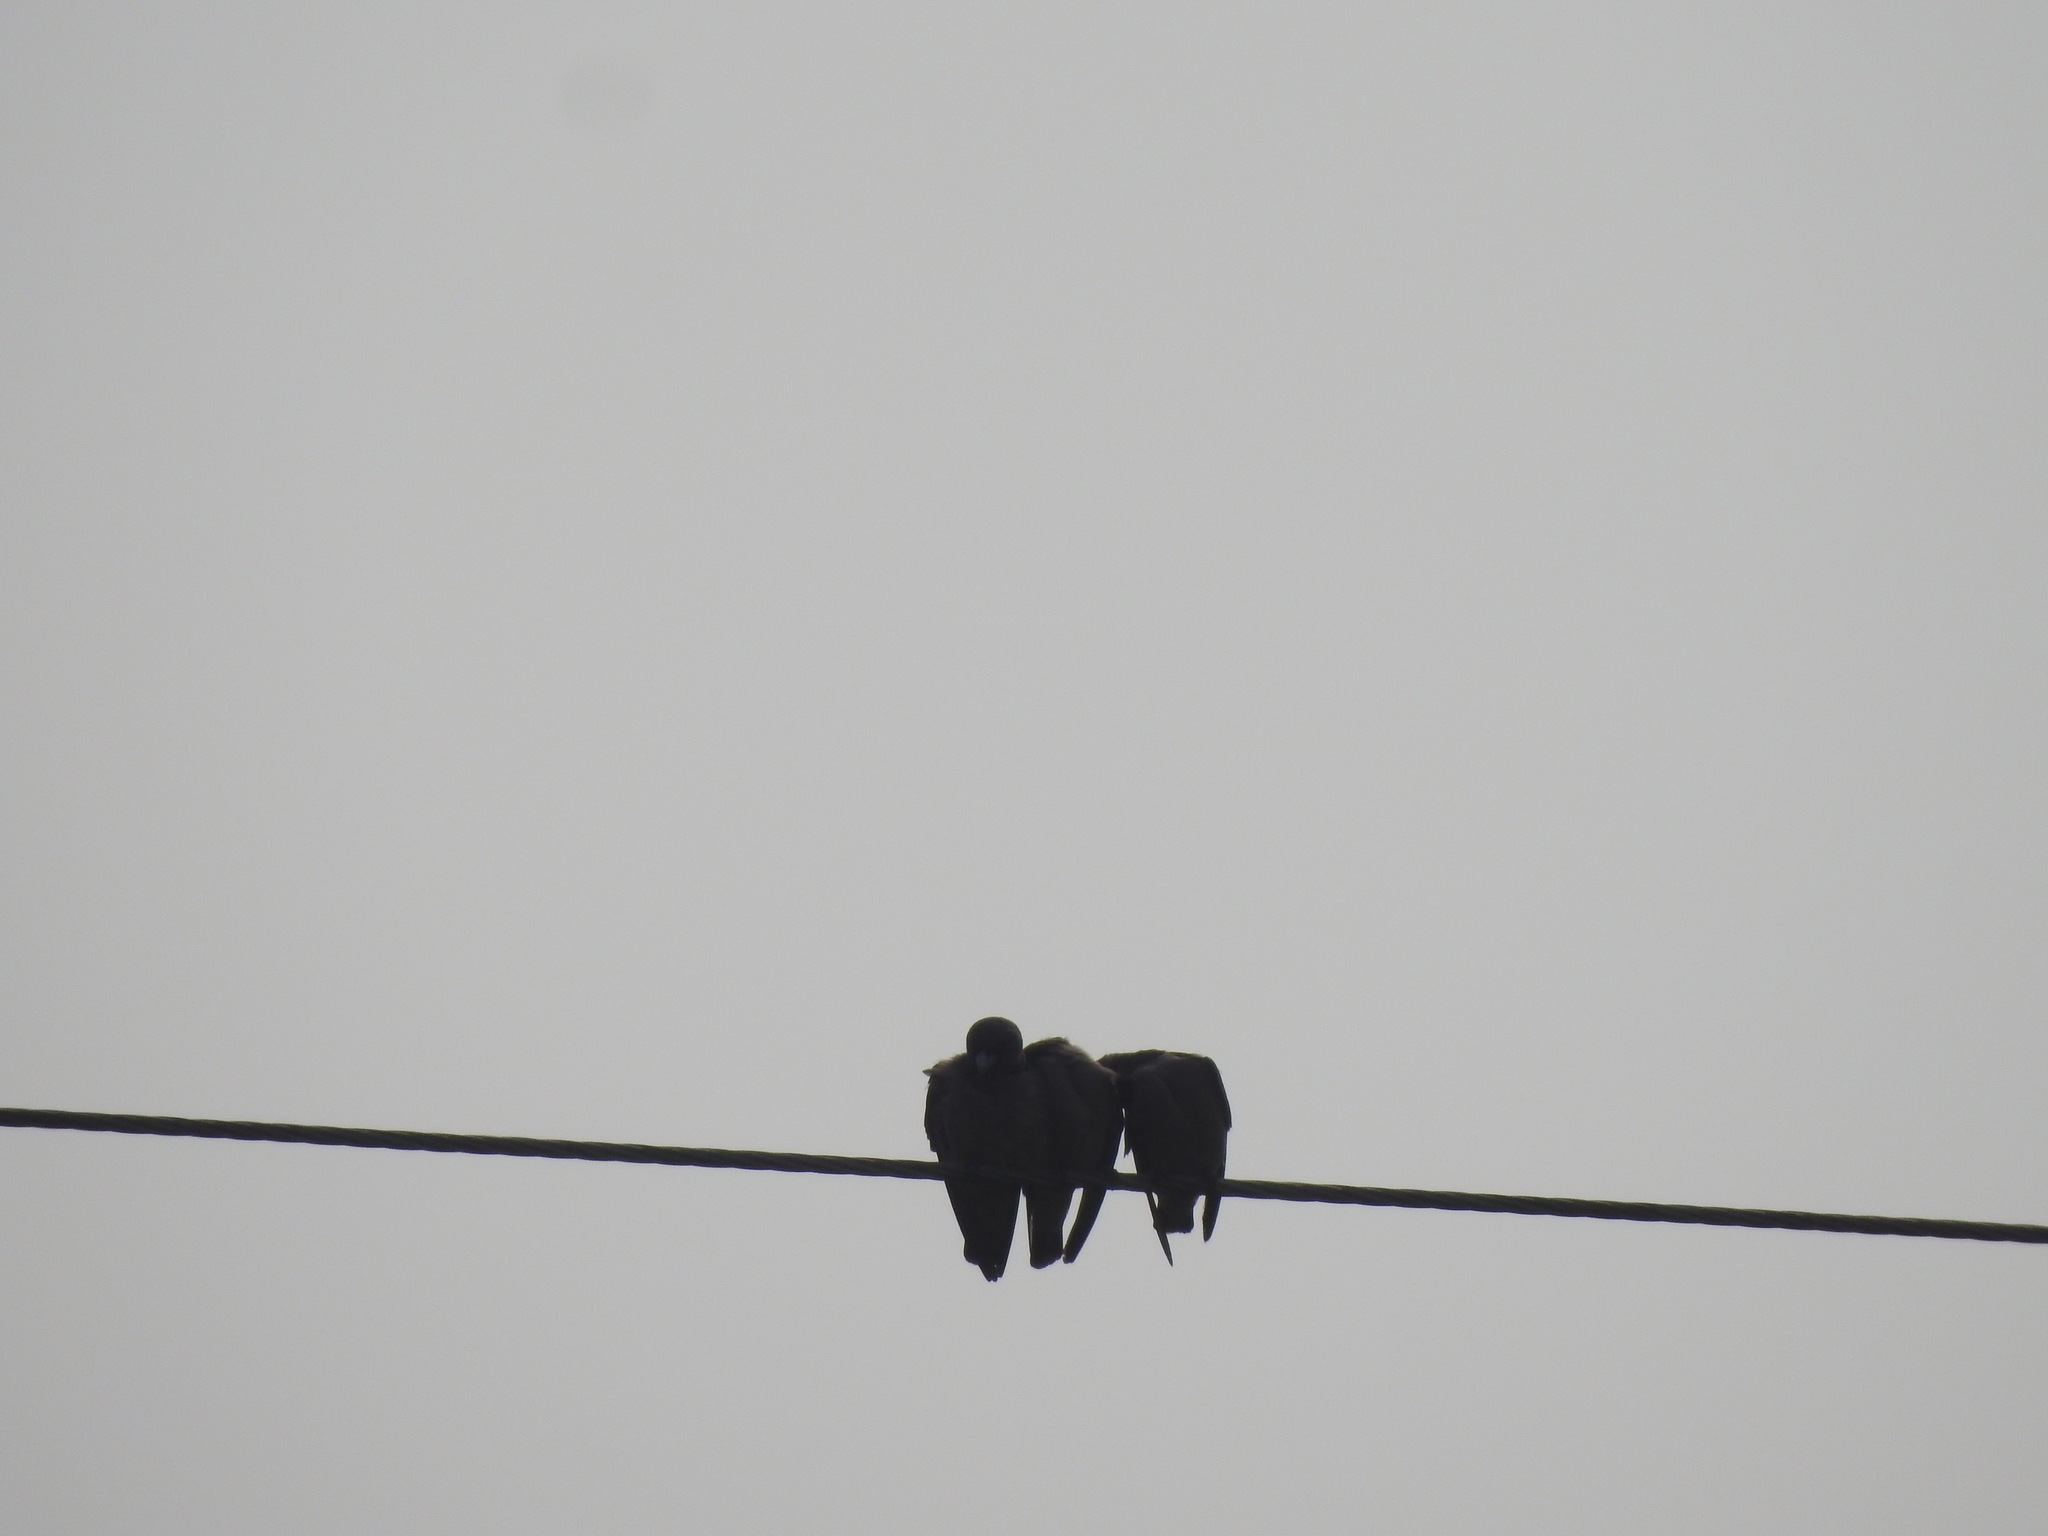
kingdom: Animalia
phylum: Chordata
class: Aves
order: Passeriformes
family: Artamidae
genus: Artamus
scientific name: Artamus fuscus
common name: Ashy woodswallow
